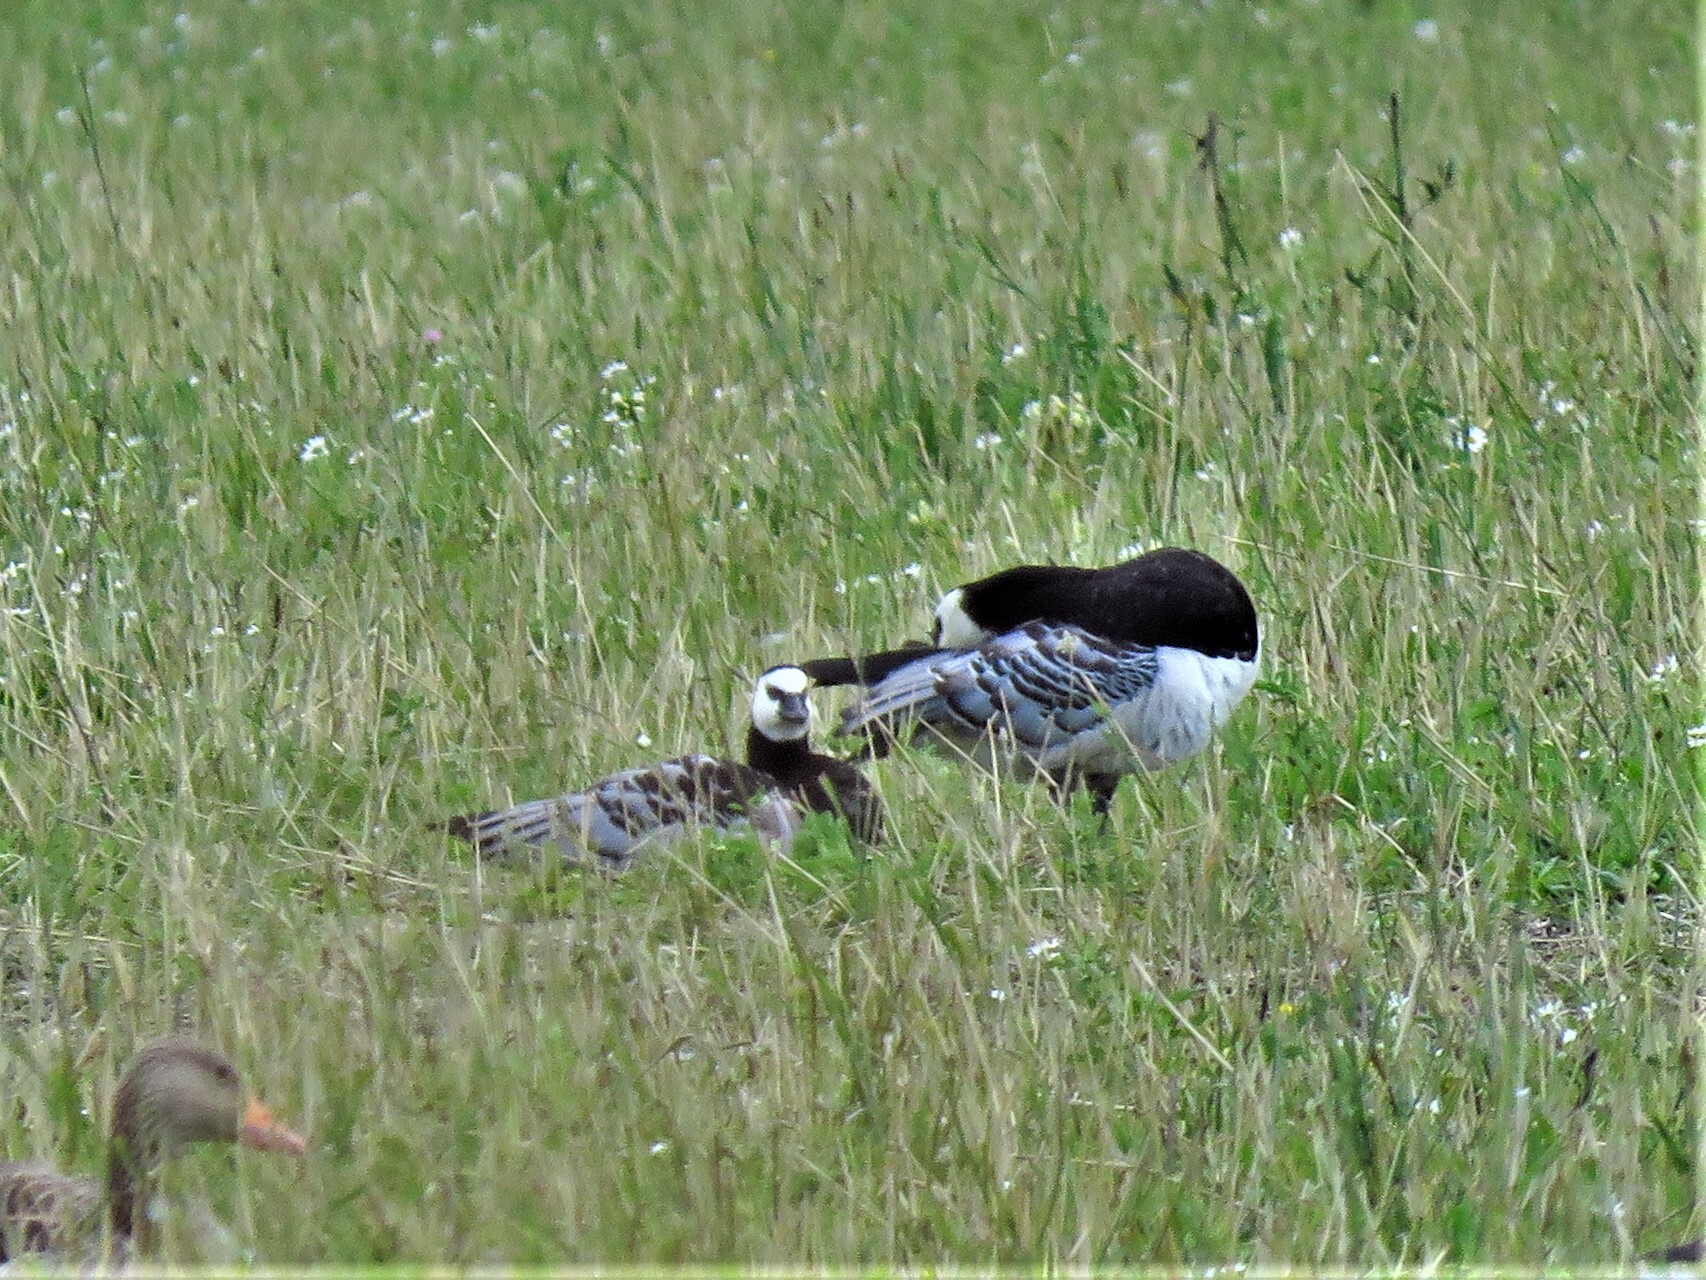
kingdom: Animalia
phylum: Chordata
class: Aves
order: Anseriformes
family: Anatidae
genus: Branta
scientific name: Branta leucopsis
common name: Barnacle goose
